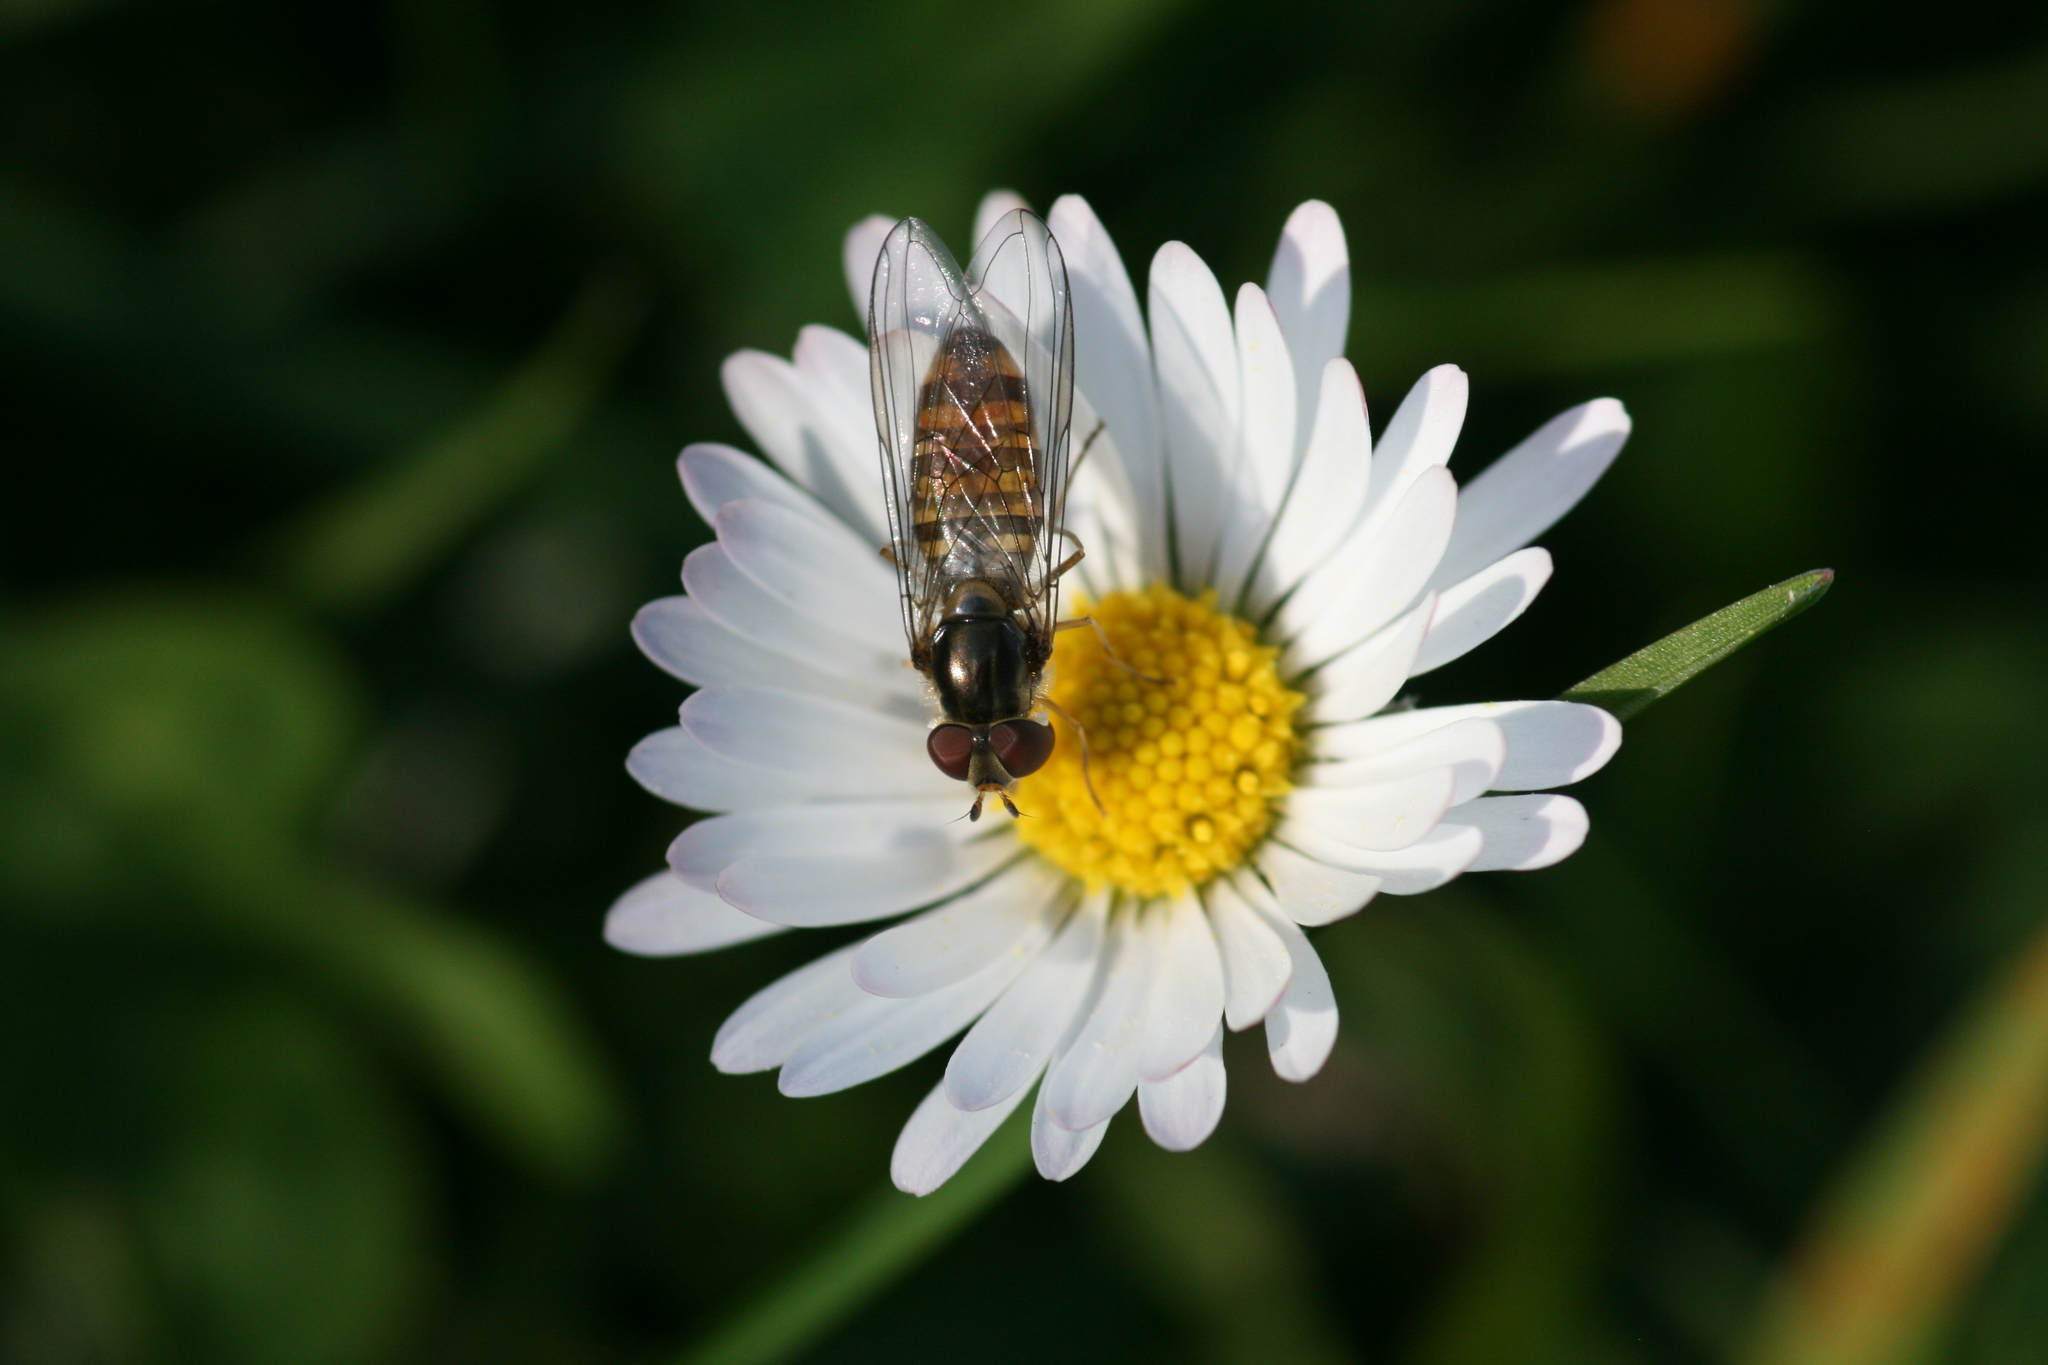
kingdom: Animalia
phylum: Arthropoda
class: Insecta
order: Diptera
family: Syrphidae
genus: Episyrphus
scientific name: Episyrphus balteatus
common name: Marmalade hoverfly
